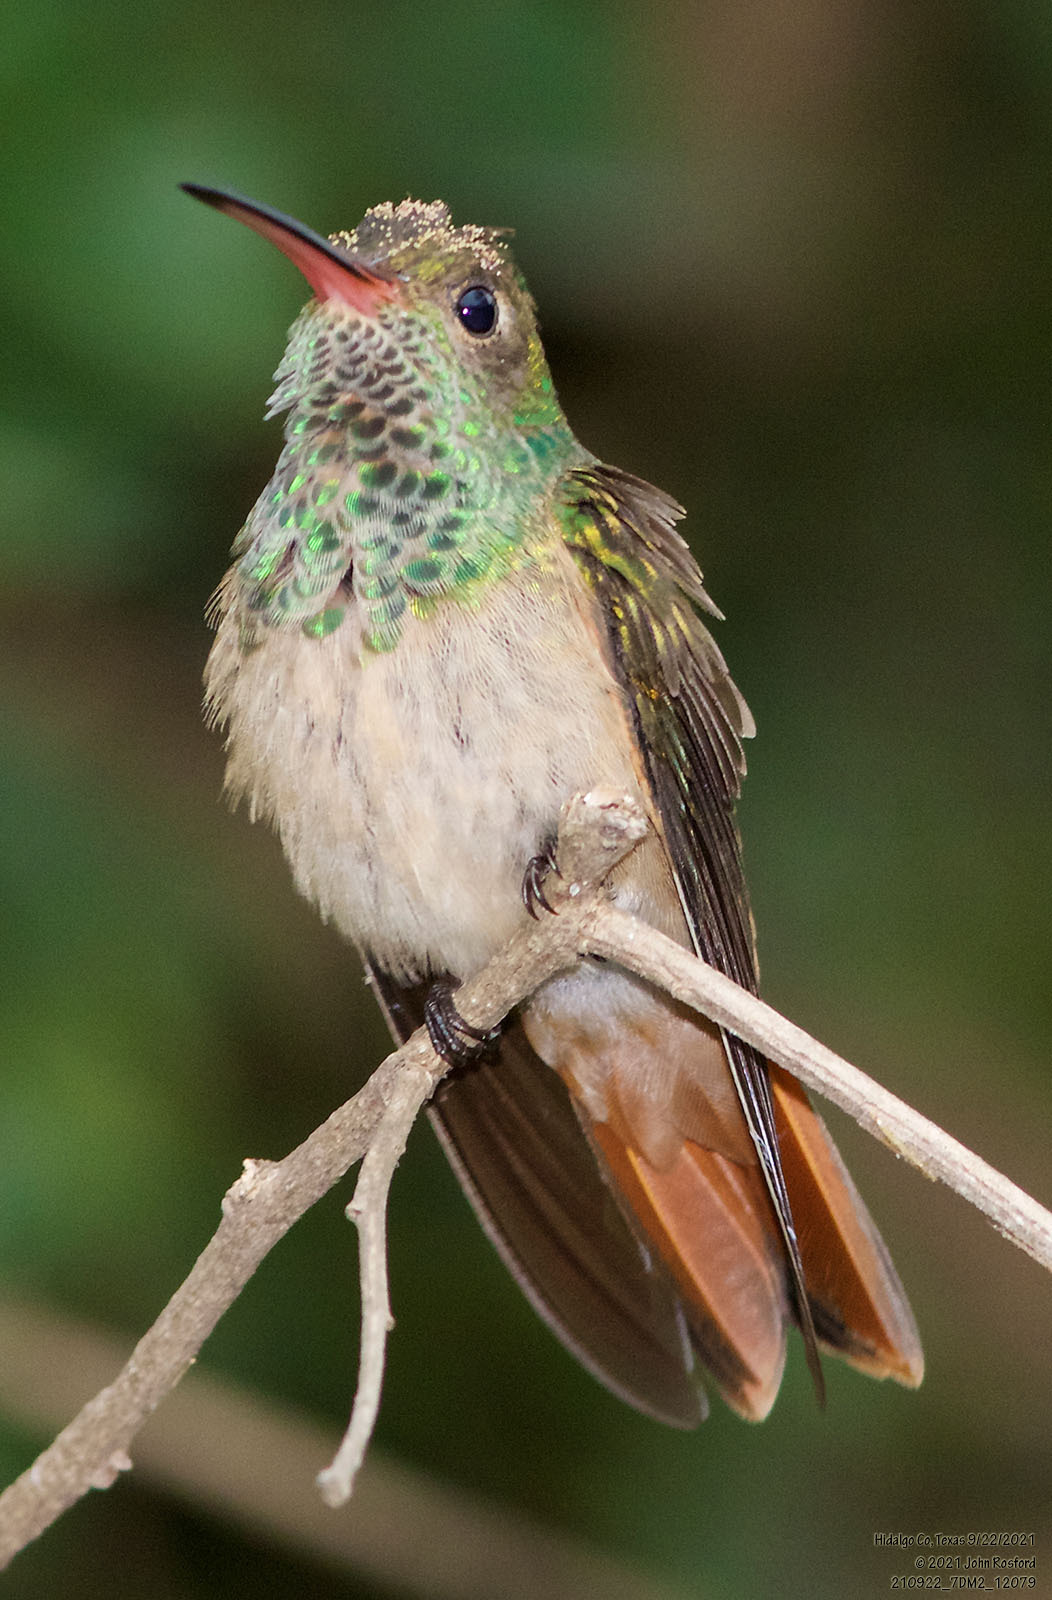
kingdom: Animalia
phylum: Chordata
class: Aves
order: Apodiformes
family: Trochilidae
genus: Amazilia
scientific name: Amazilia yucatanensis
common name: Buff-bellied hummingbird
